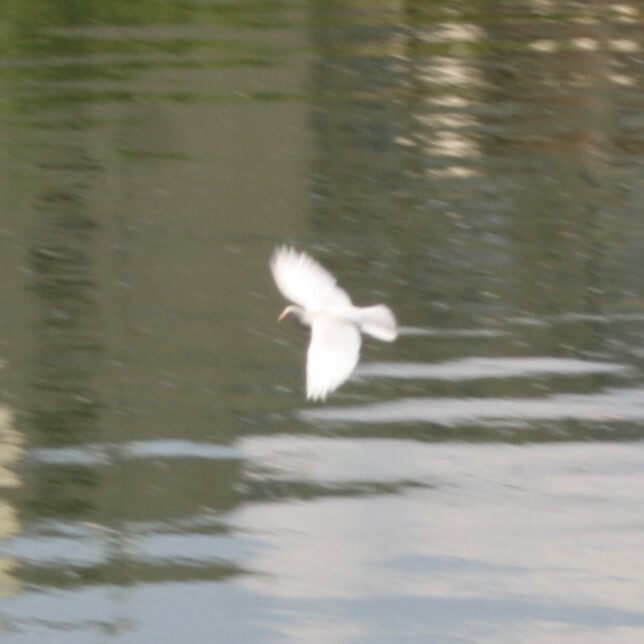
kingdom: Animalia
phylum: Chordata
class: Aves
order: Columbiformes
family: Columbidae
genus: Columba
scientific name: Columba livia
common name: Rock pigeon
